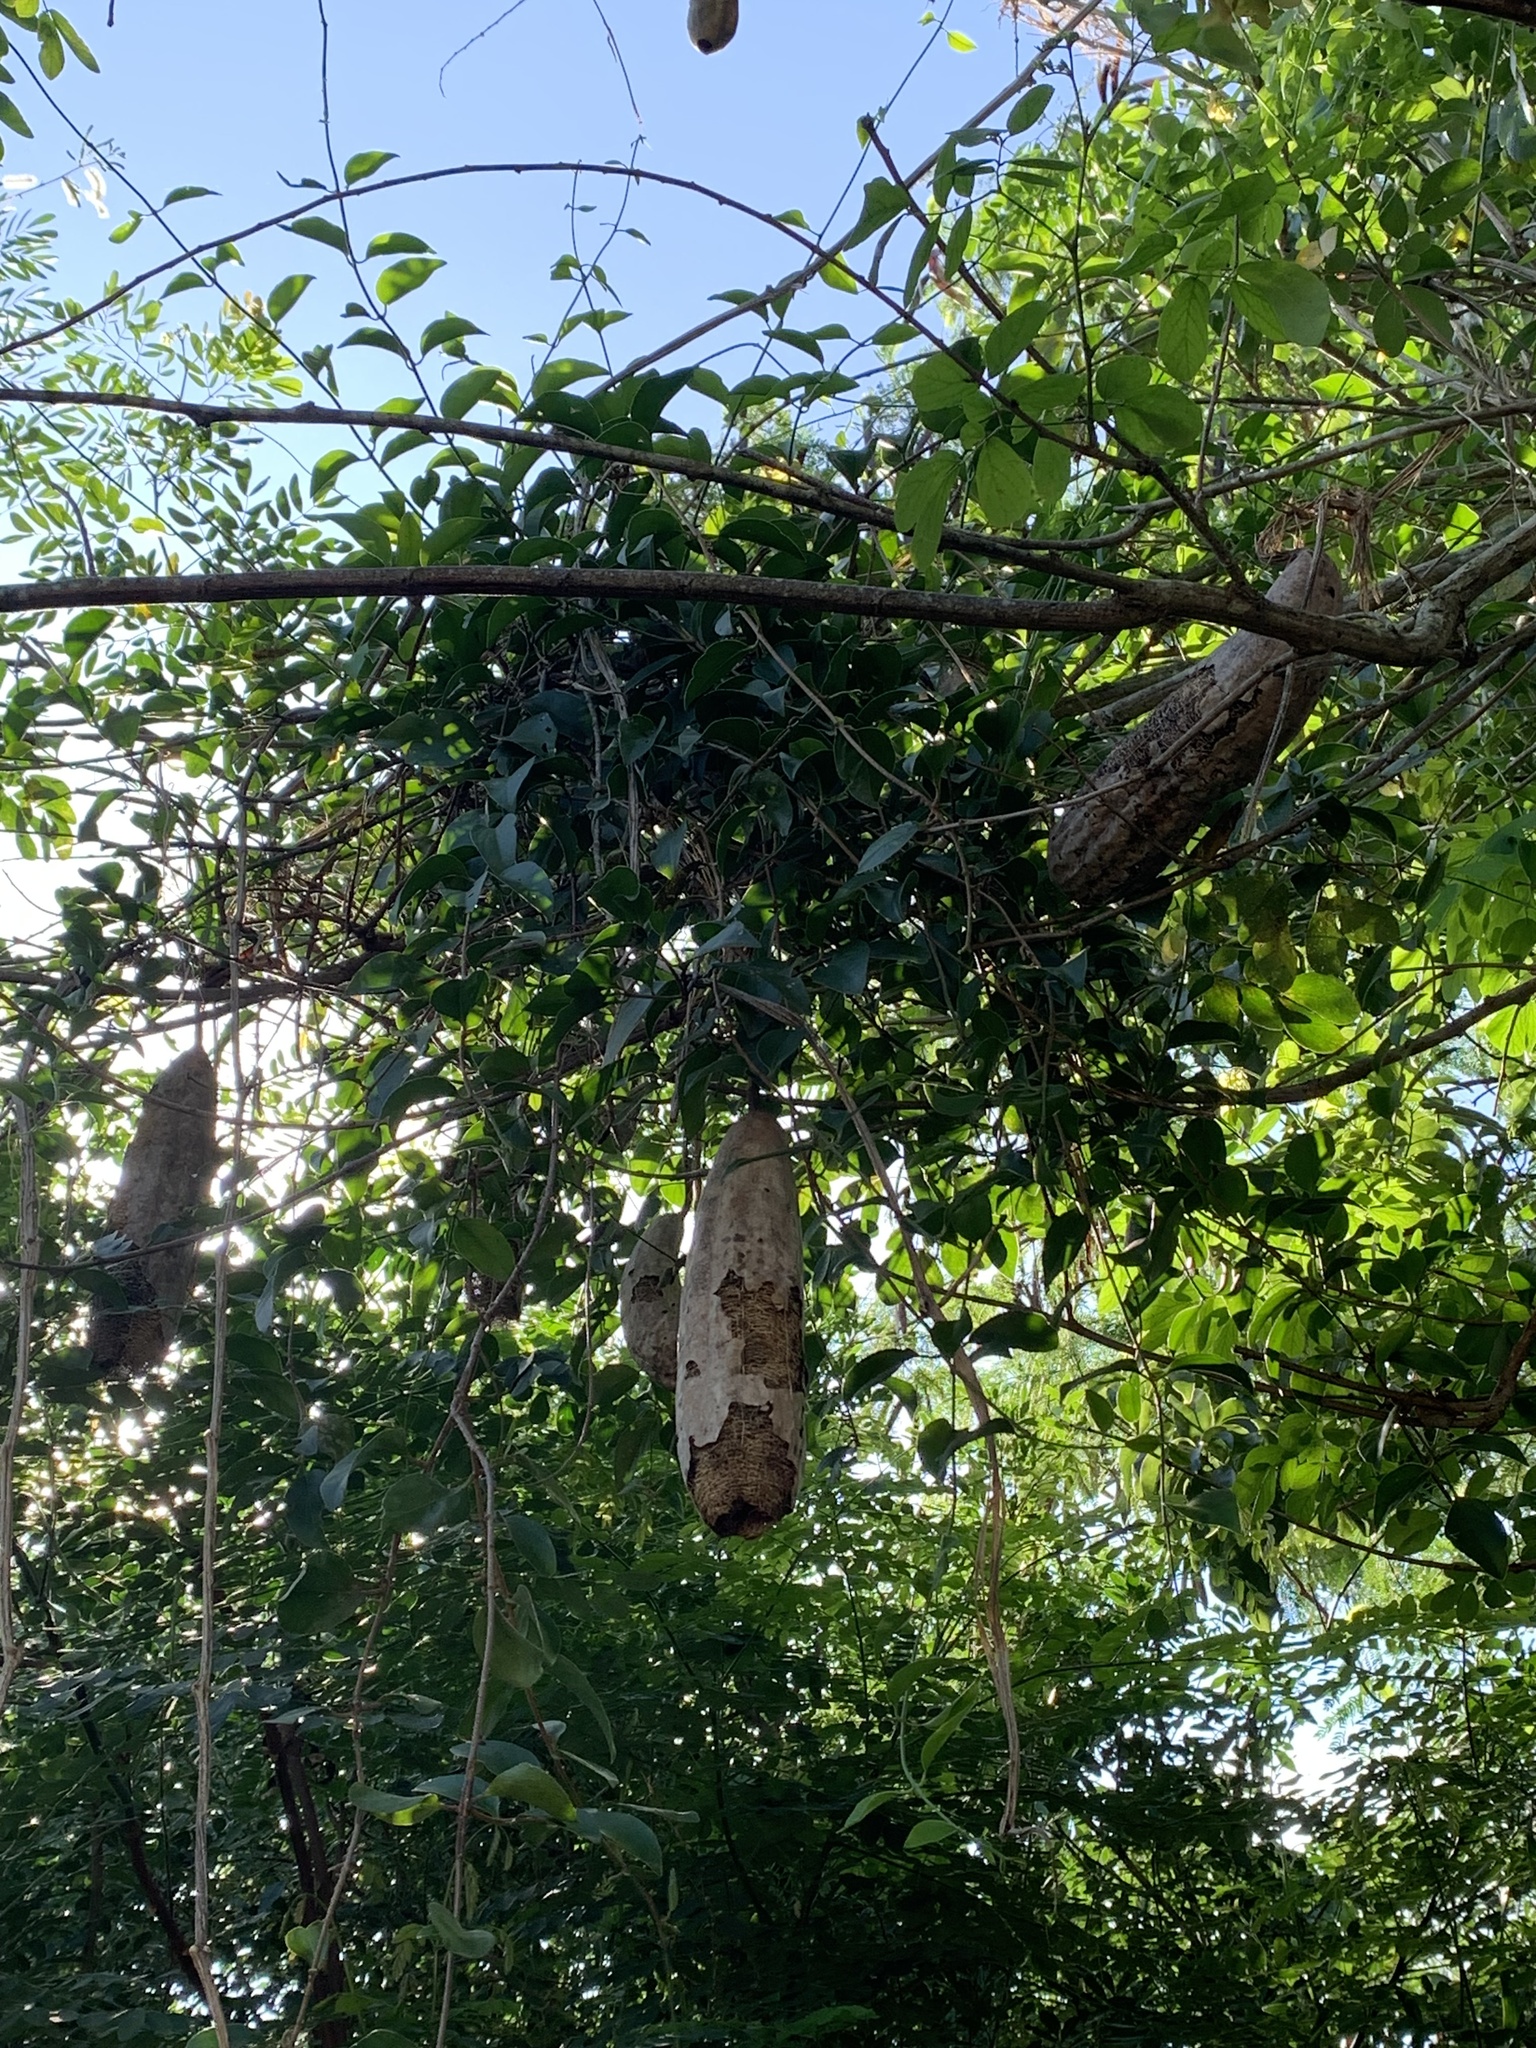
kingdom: Plantae
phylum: Tracheophyta
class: Magnoliopsida
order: Cucurbitales
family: Cucurbitaceae
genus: Luffa
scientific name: Luffa aegyptiaca
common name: Sponge gourd
